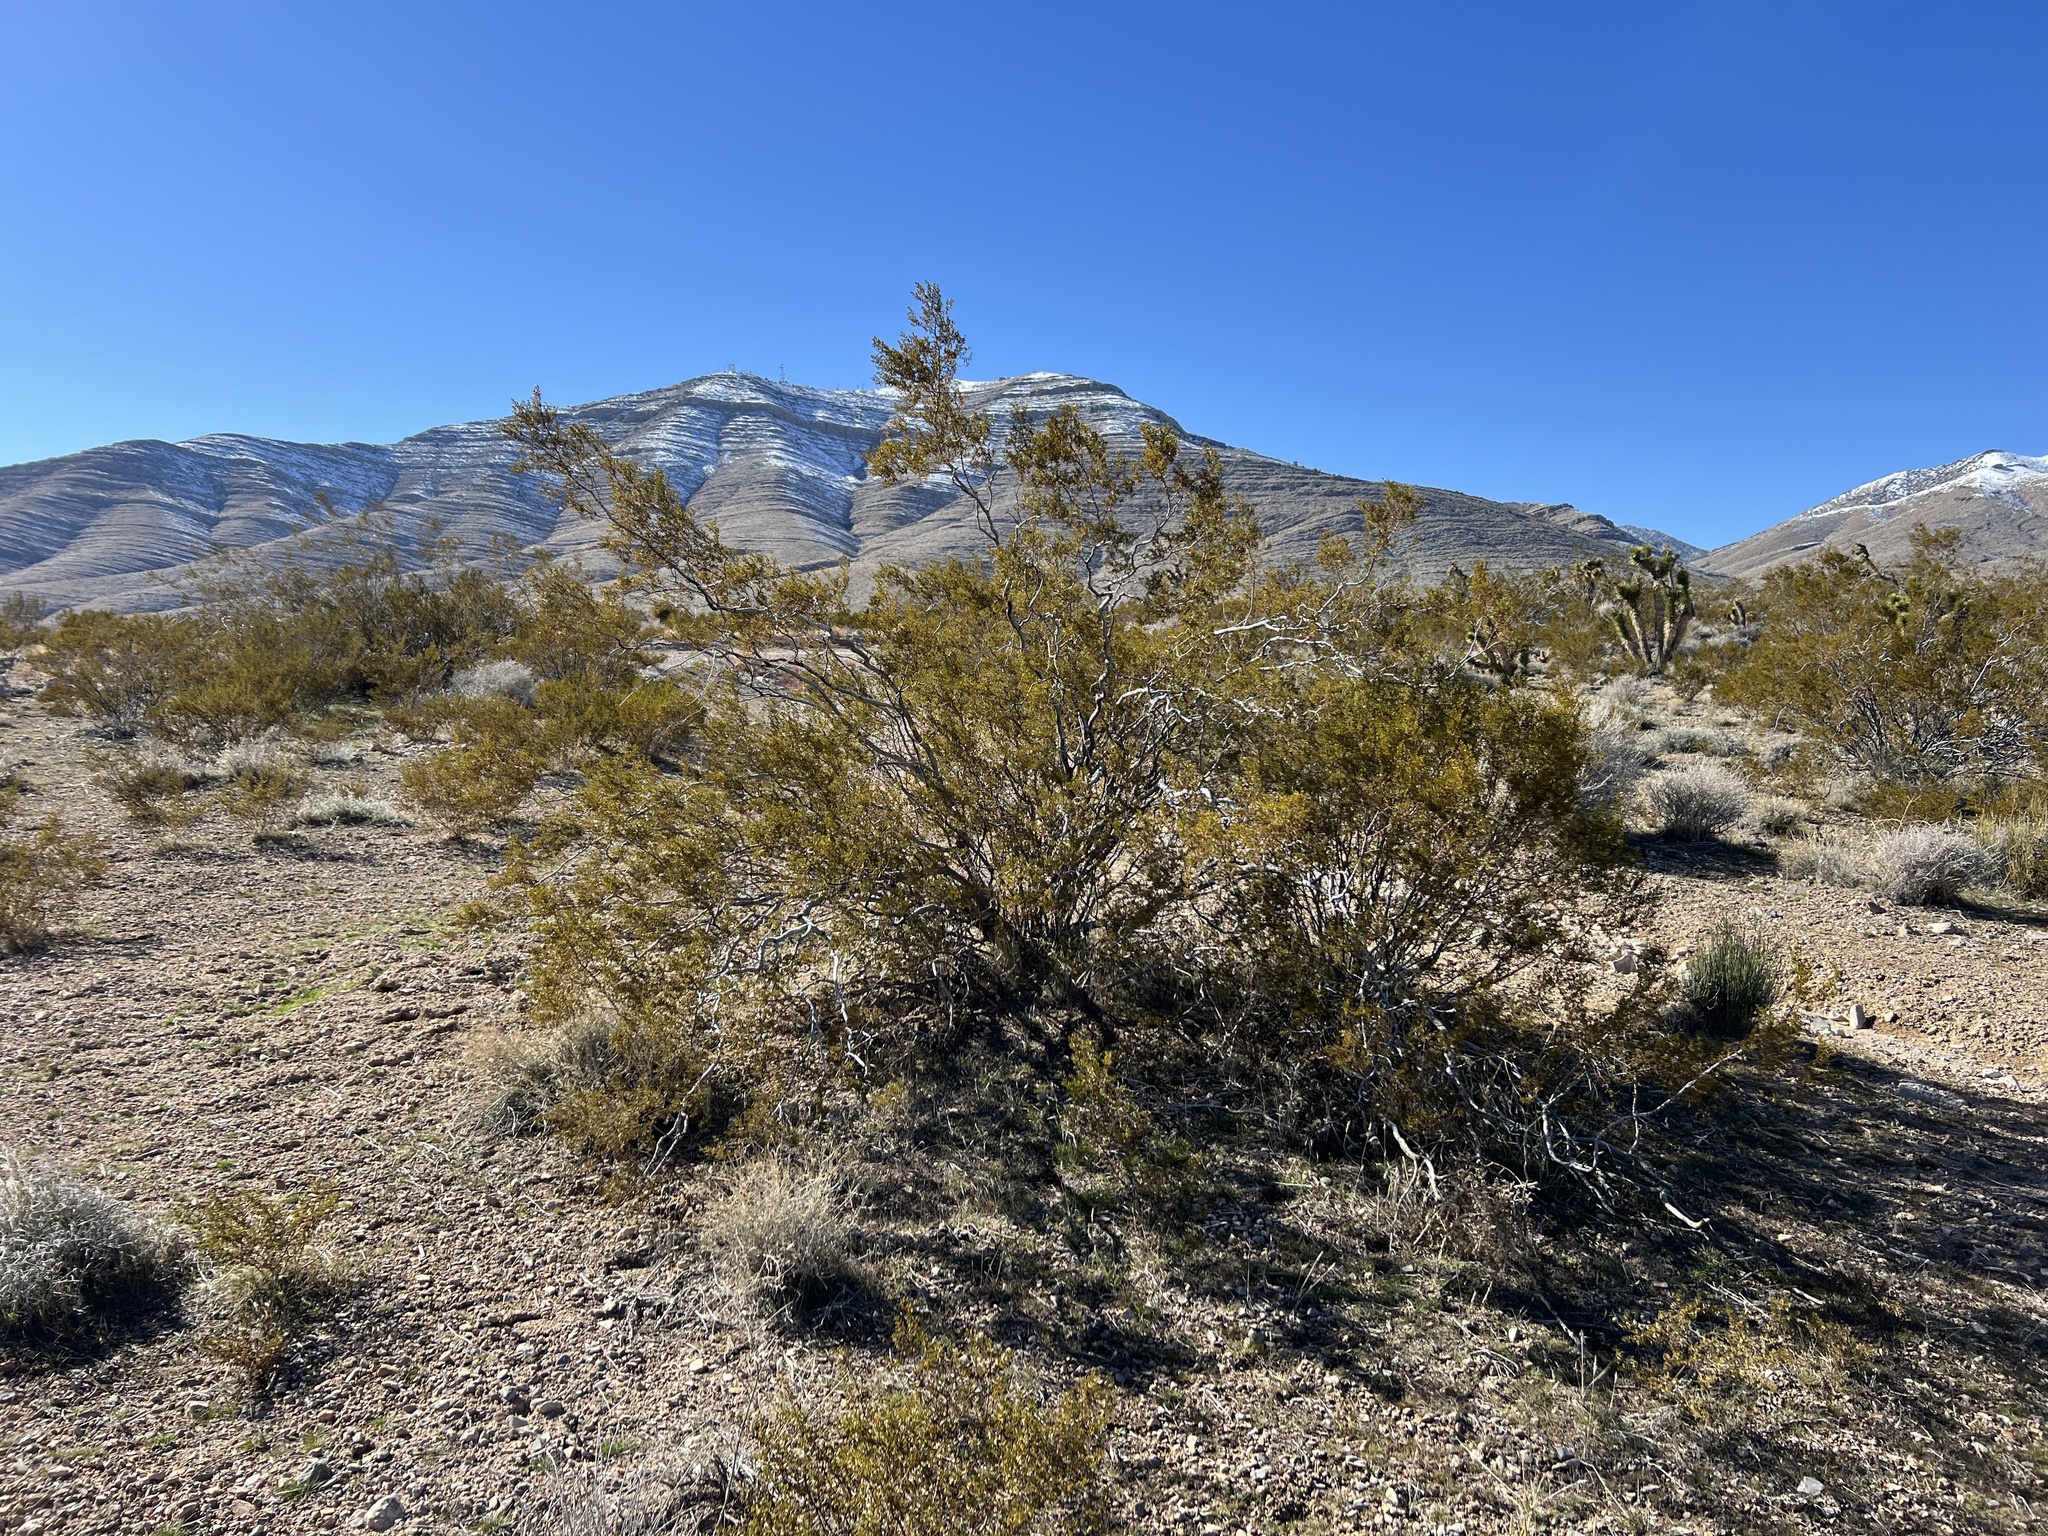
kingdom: Plantae
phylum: Tracheophyta
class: Magnoliopsida
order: Zygophyllales
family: Zygophyllaceae
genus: Larrea
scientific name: Larrea tridentata
